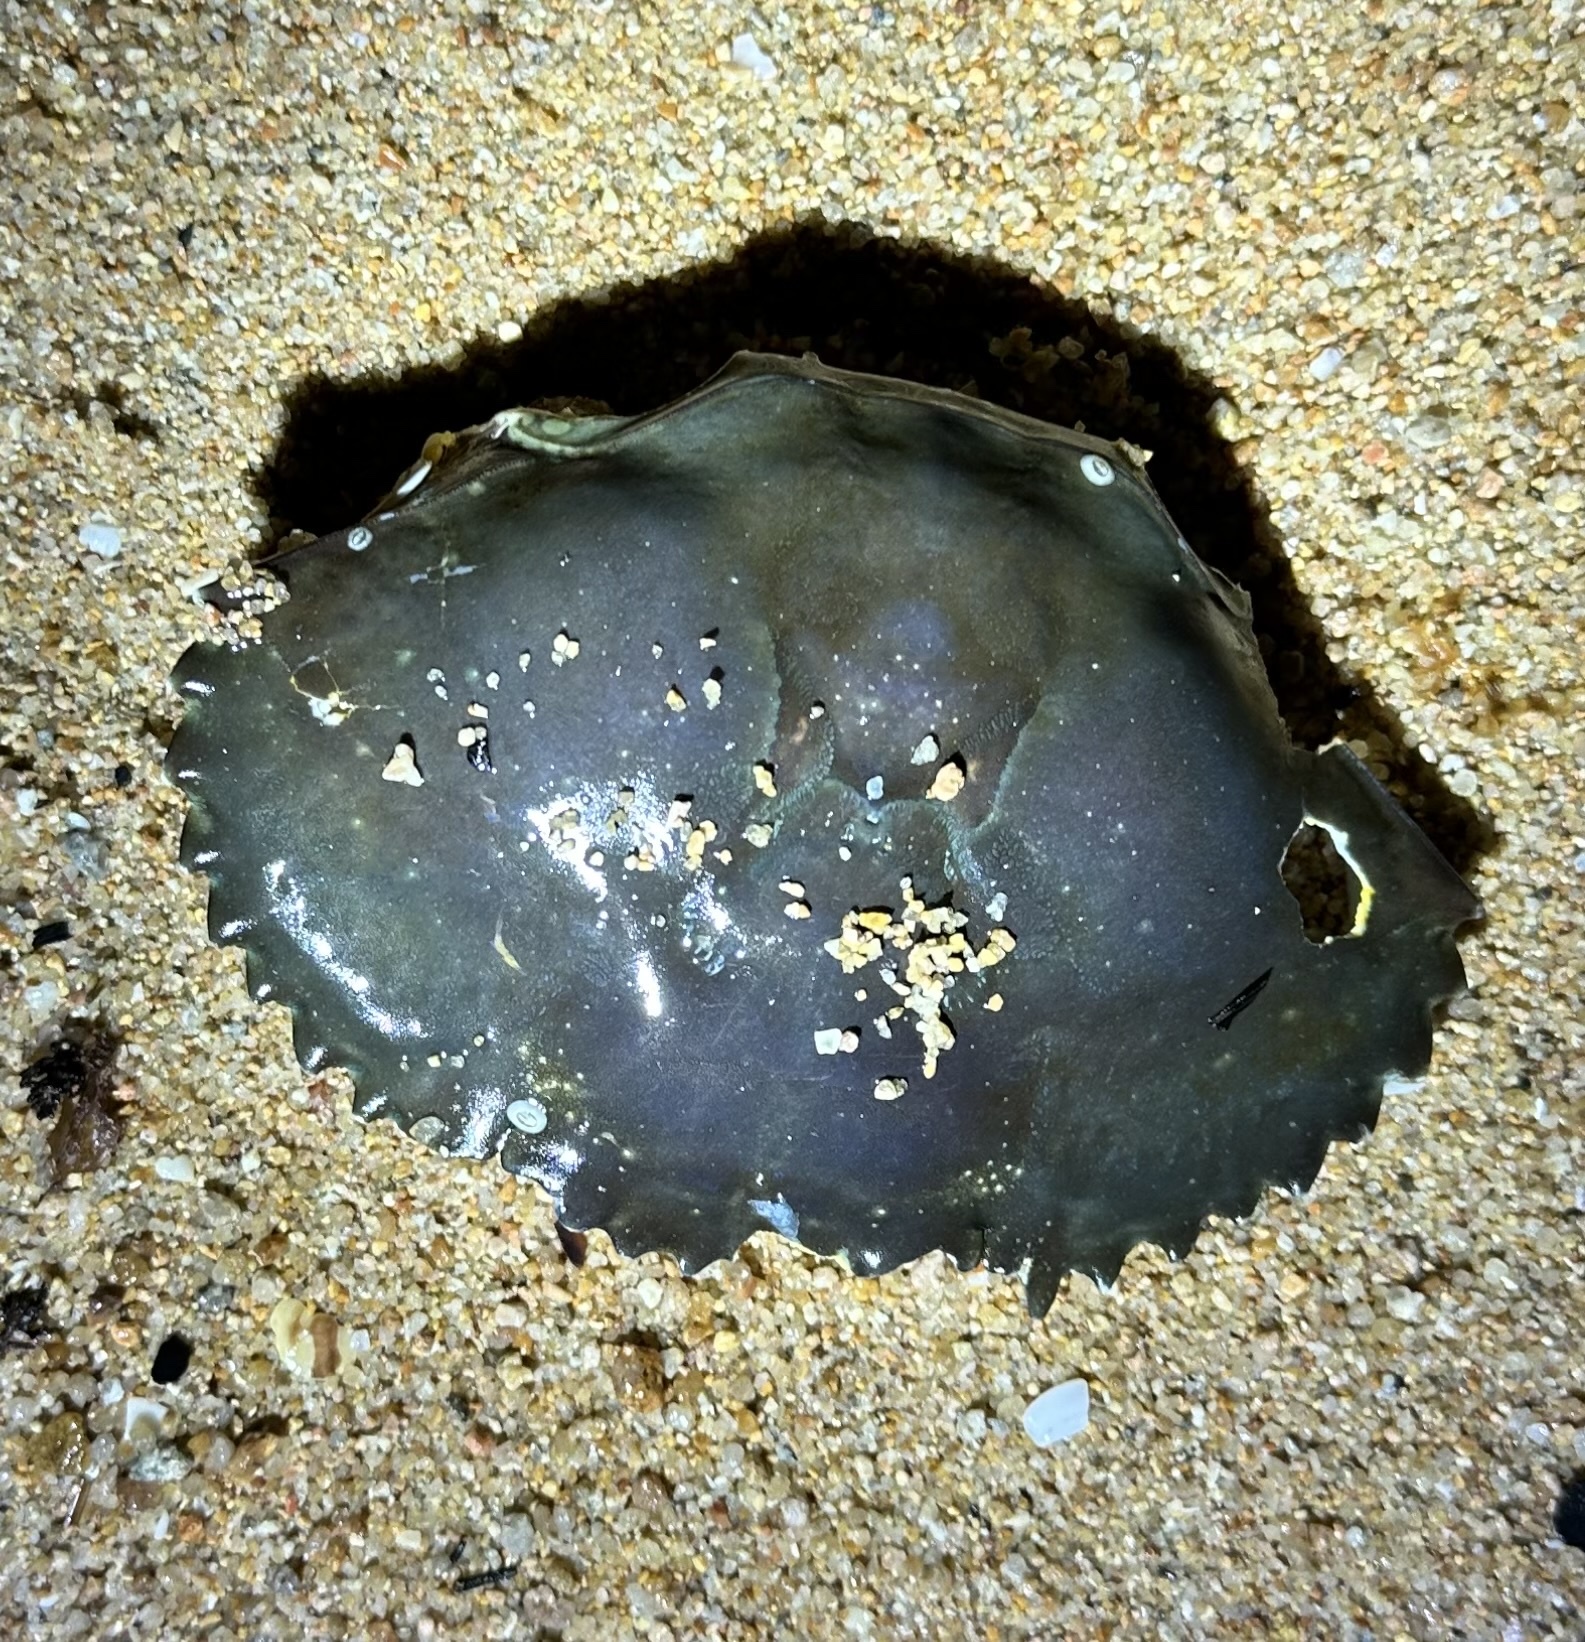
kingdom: Animalia
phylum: Arthropoda
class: Malacostraca
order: Decapoda
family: Portunidae
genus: Scylla
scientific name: Scylla serrata
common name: Giant mud crab
